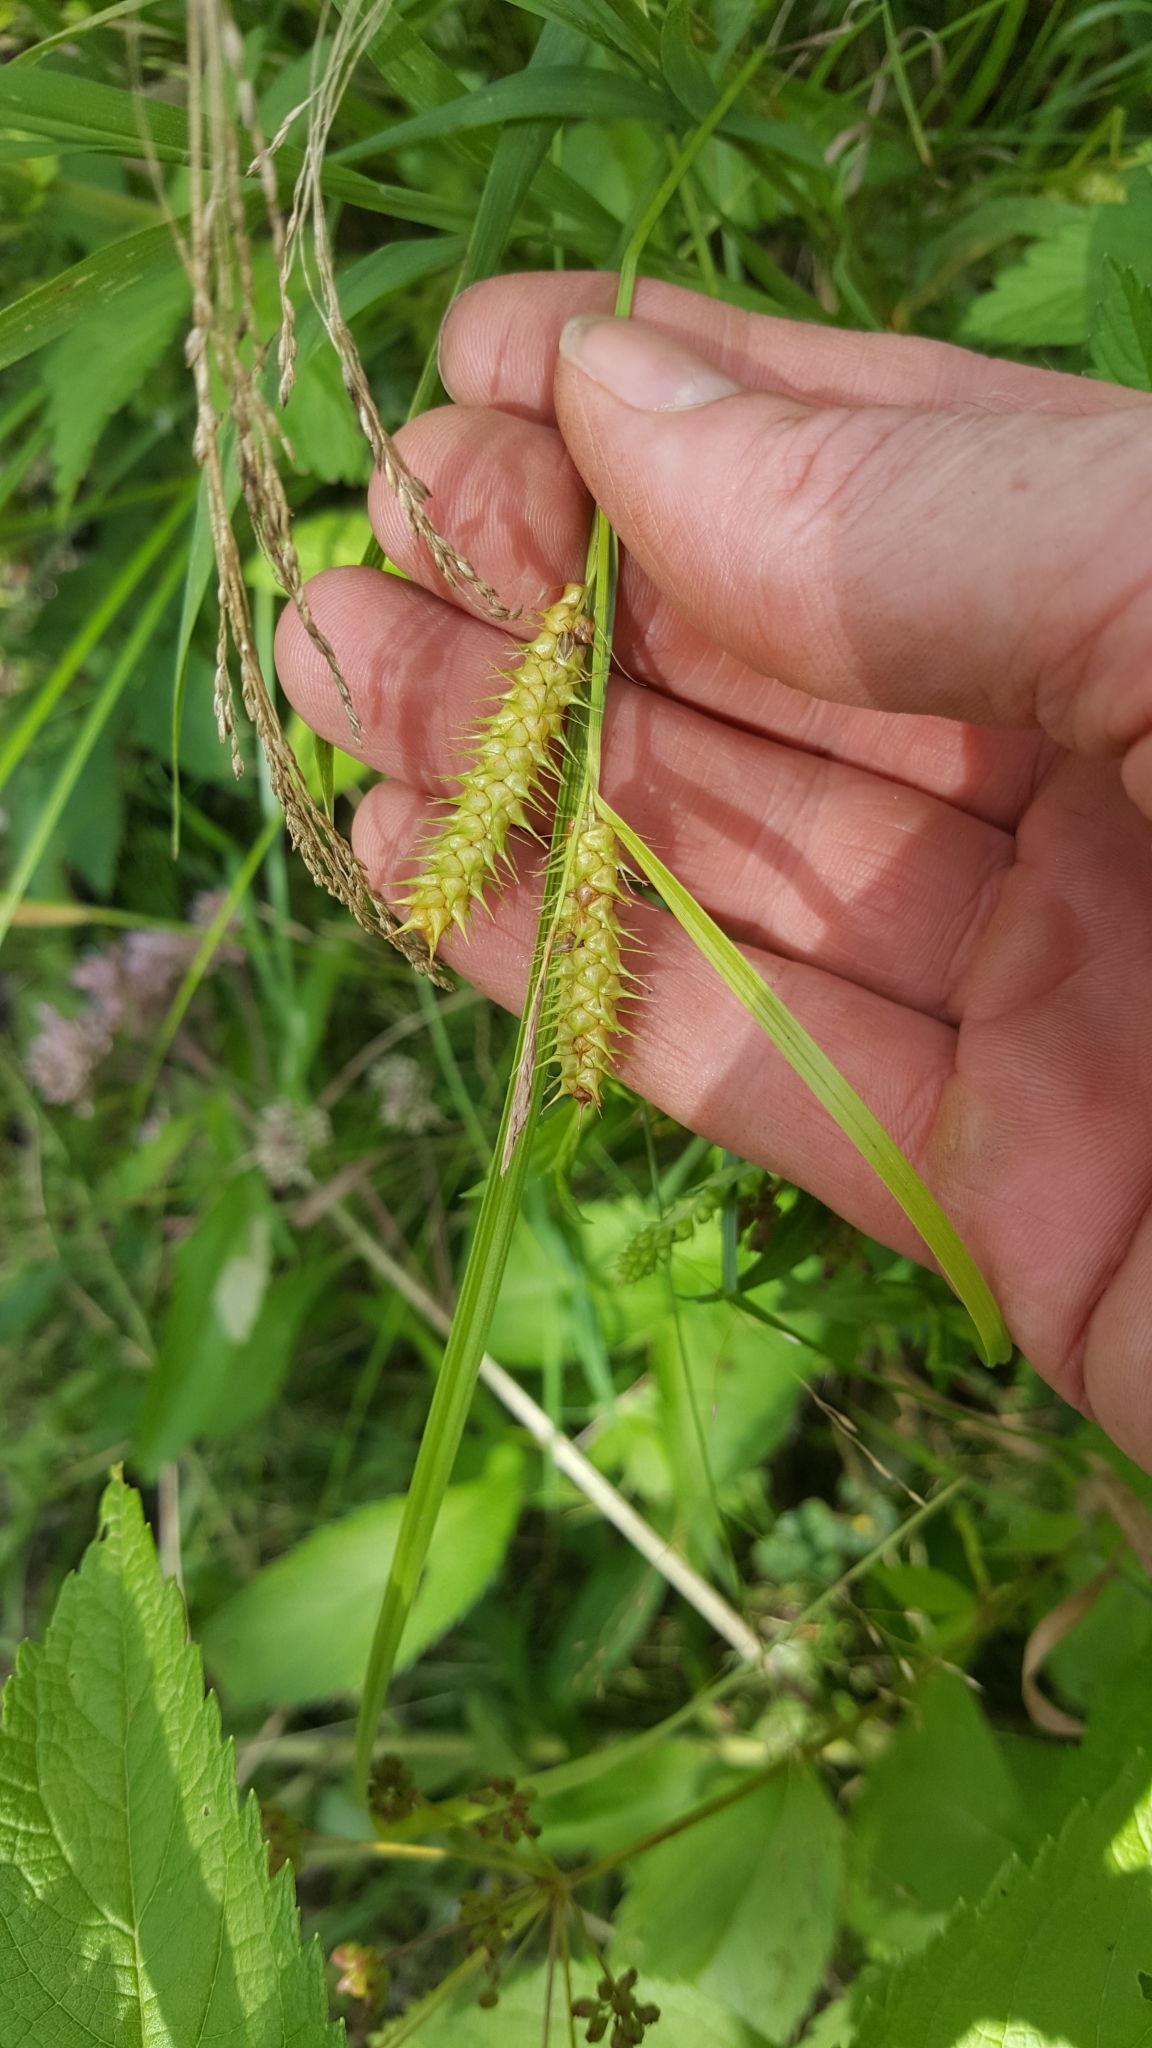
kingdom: Plantae
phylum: Tracheophyta
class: Liliopsida
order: Poales
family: Cyperaceae
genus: Carex
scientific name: Carex baileyi
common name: Bailey's sedge
